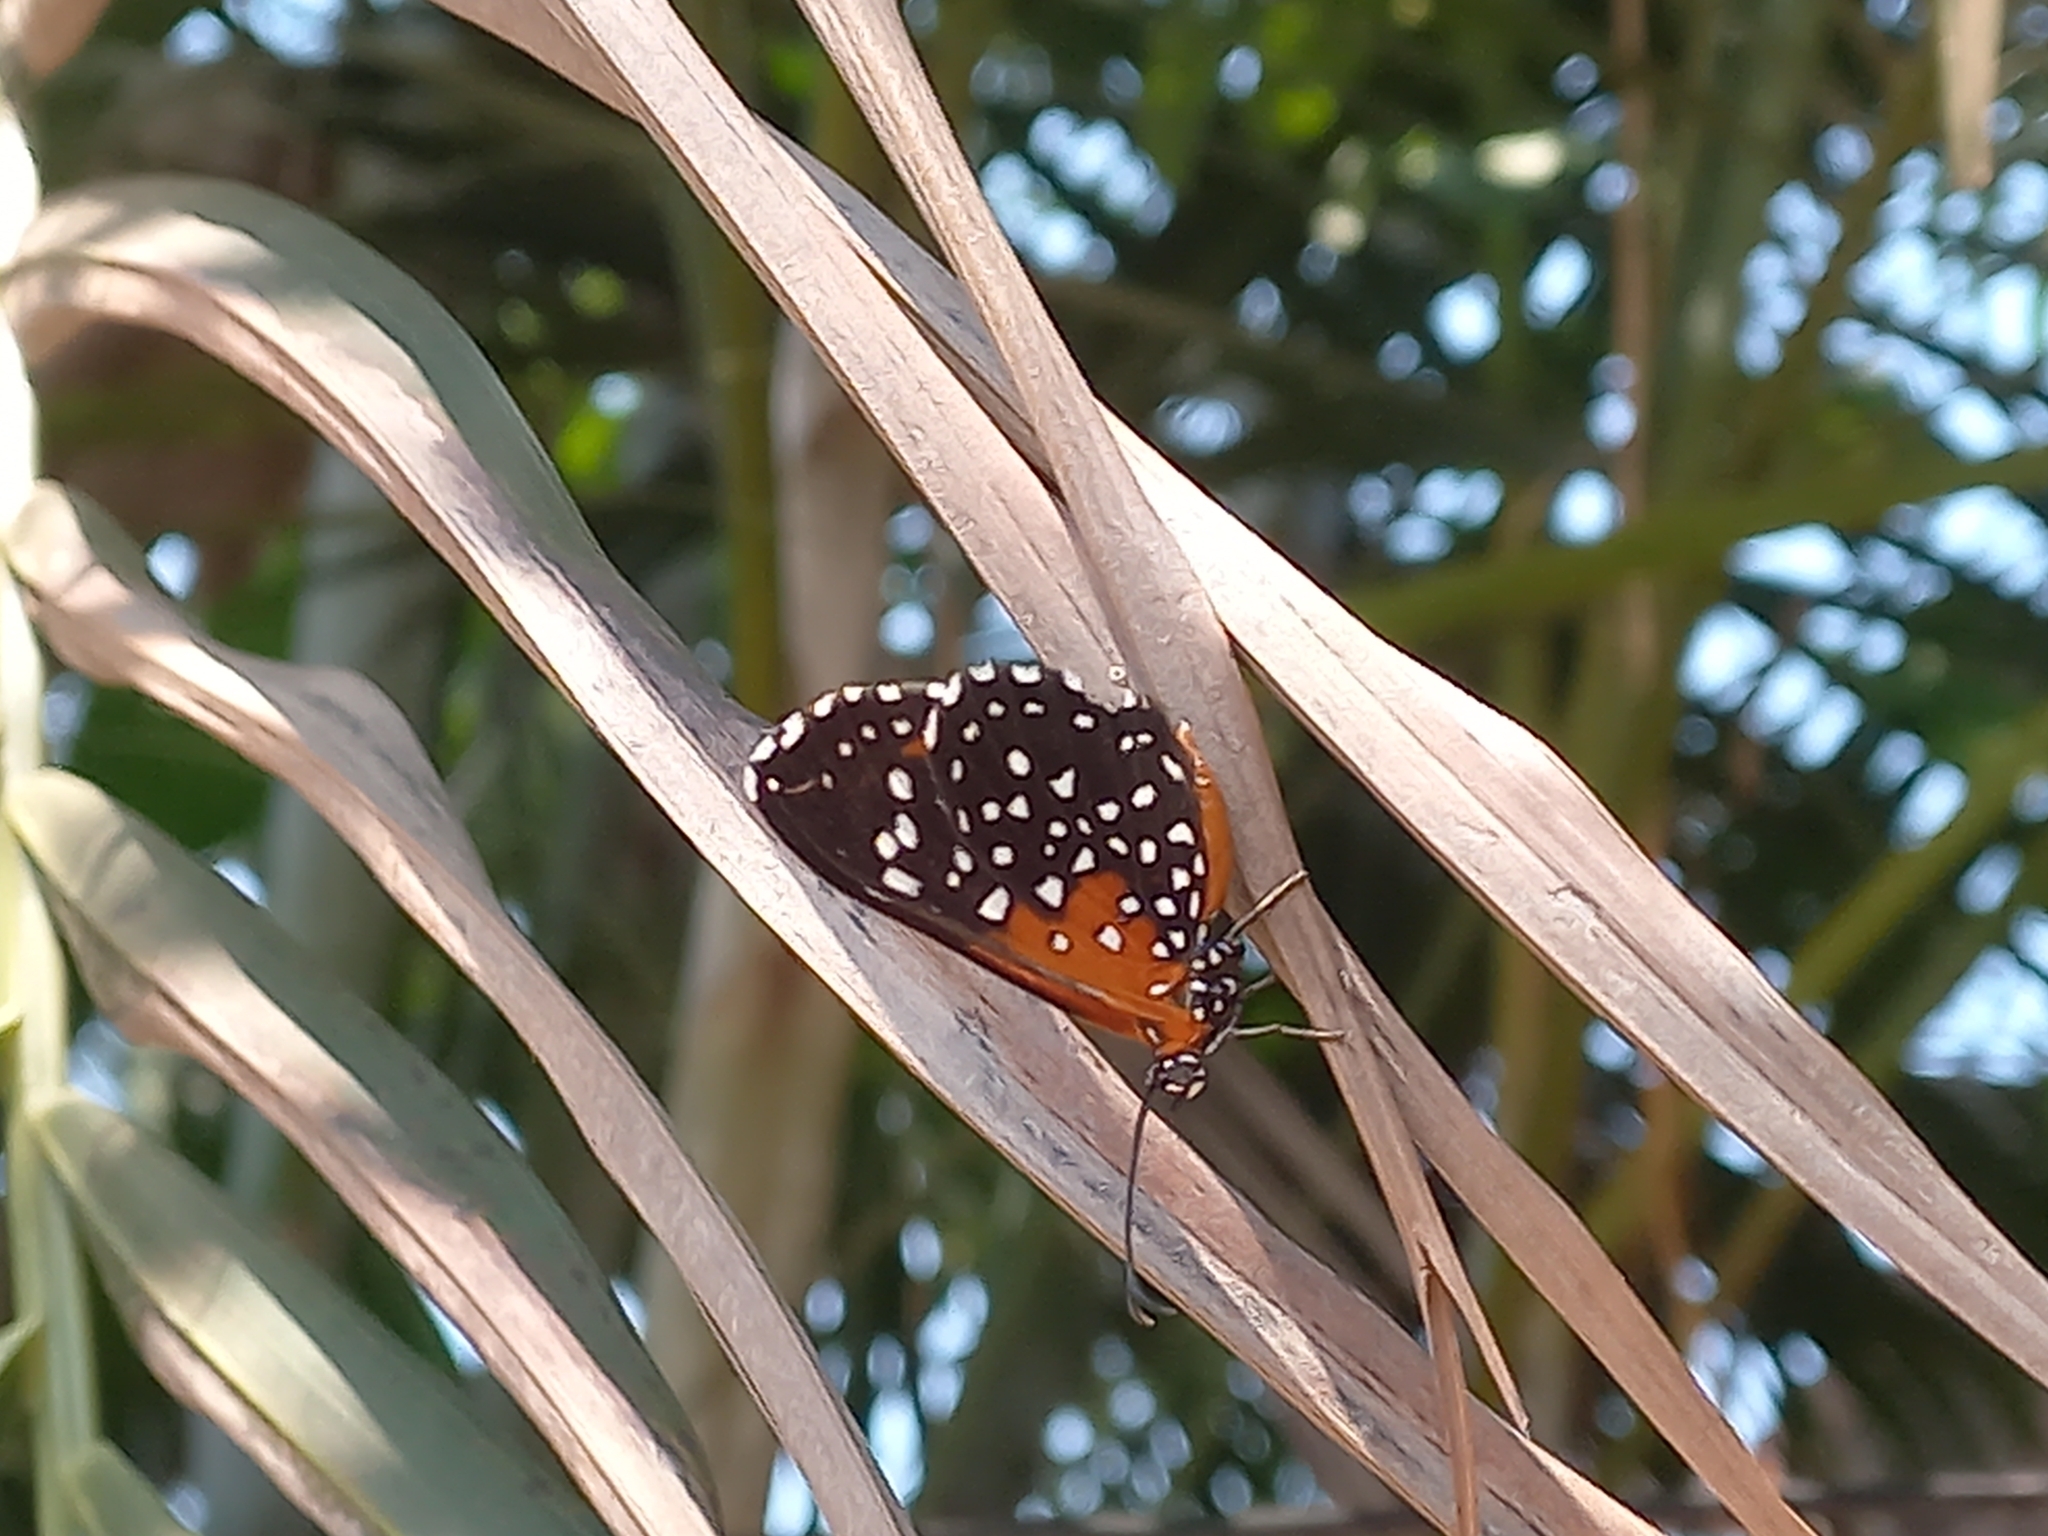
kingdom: Animalia
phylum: Arthropoda
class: Insecta
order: Lepidoptera
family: Riodinidae
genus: Stalachtis
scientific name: Stalachtis phlegia
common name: Dotted prince
